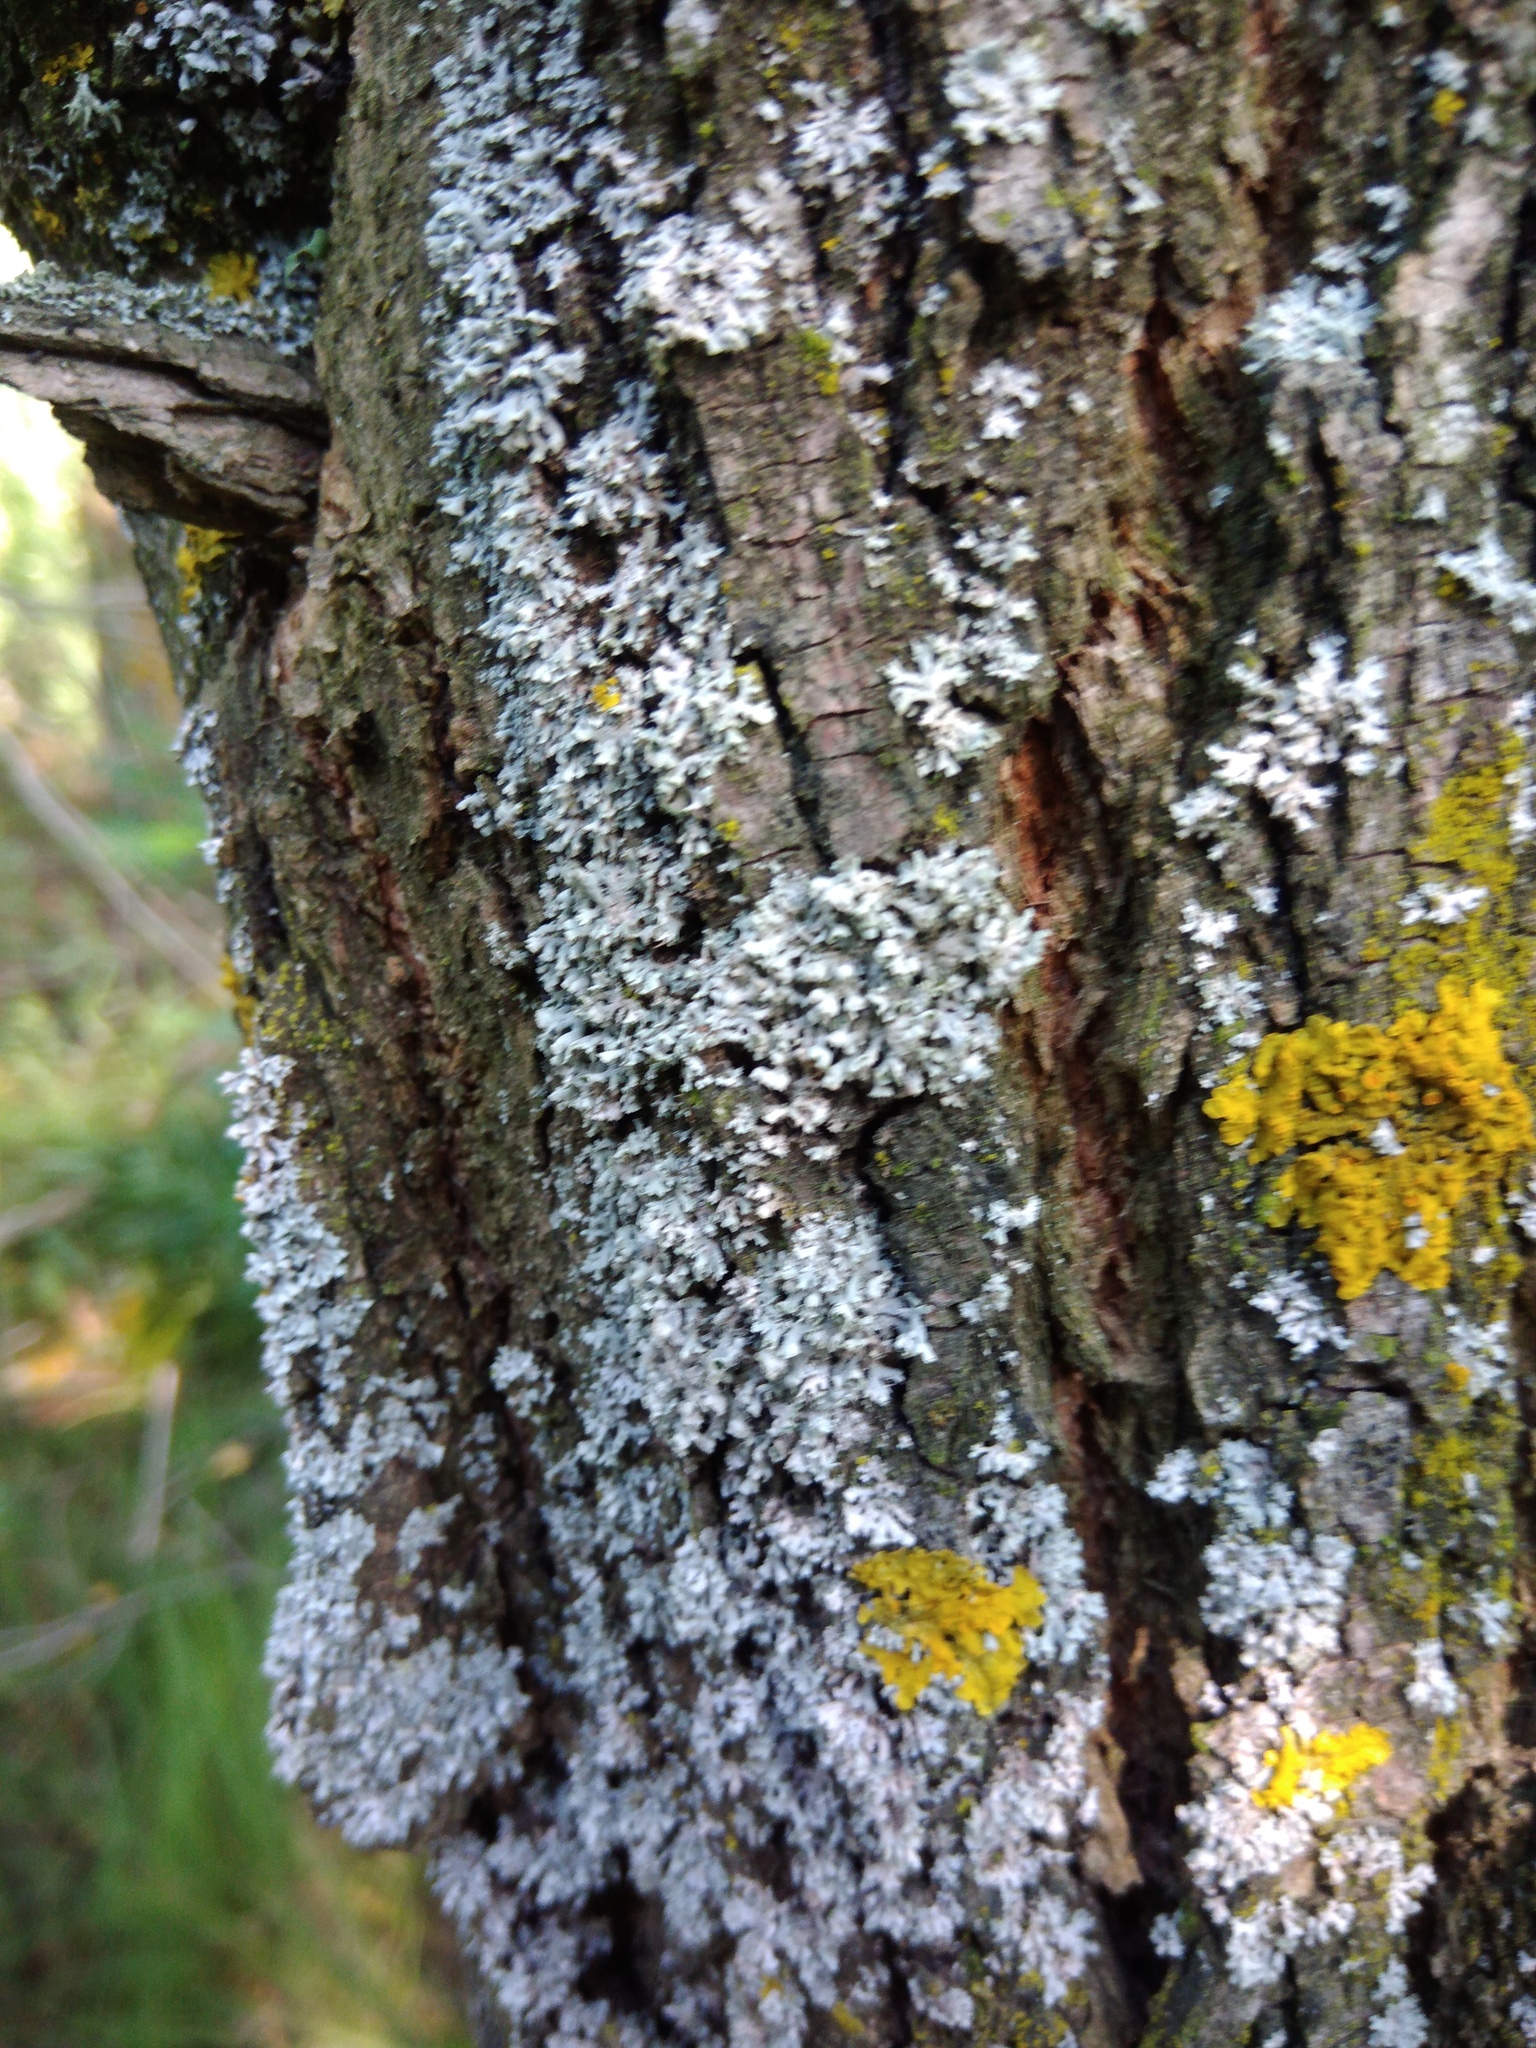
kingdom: Fungi
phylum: Ascomycota
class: Lecanoromycetes
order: Caliciales
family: Physciaceae
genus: Physcia
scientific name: Physcia adscendens
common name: Hooded rosette lichen
